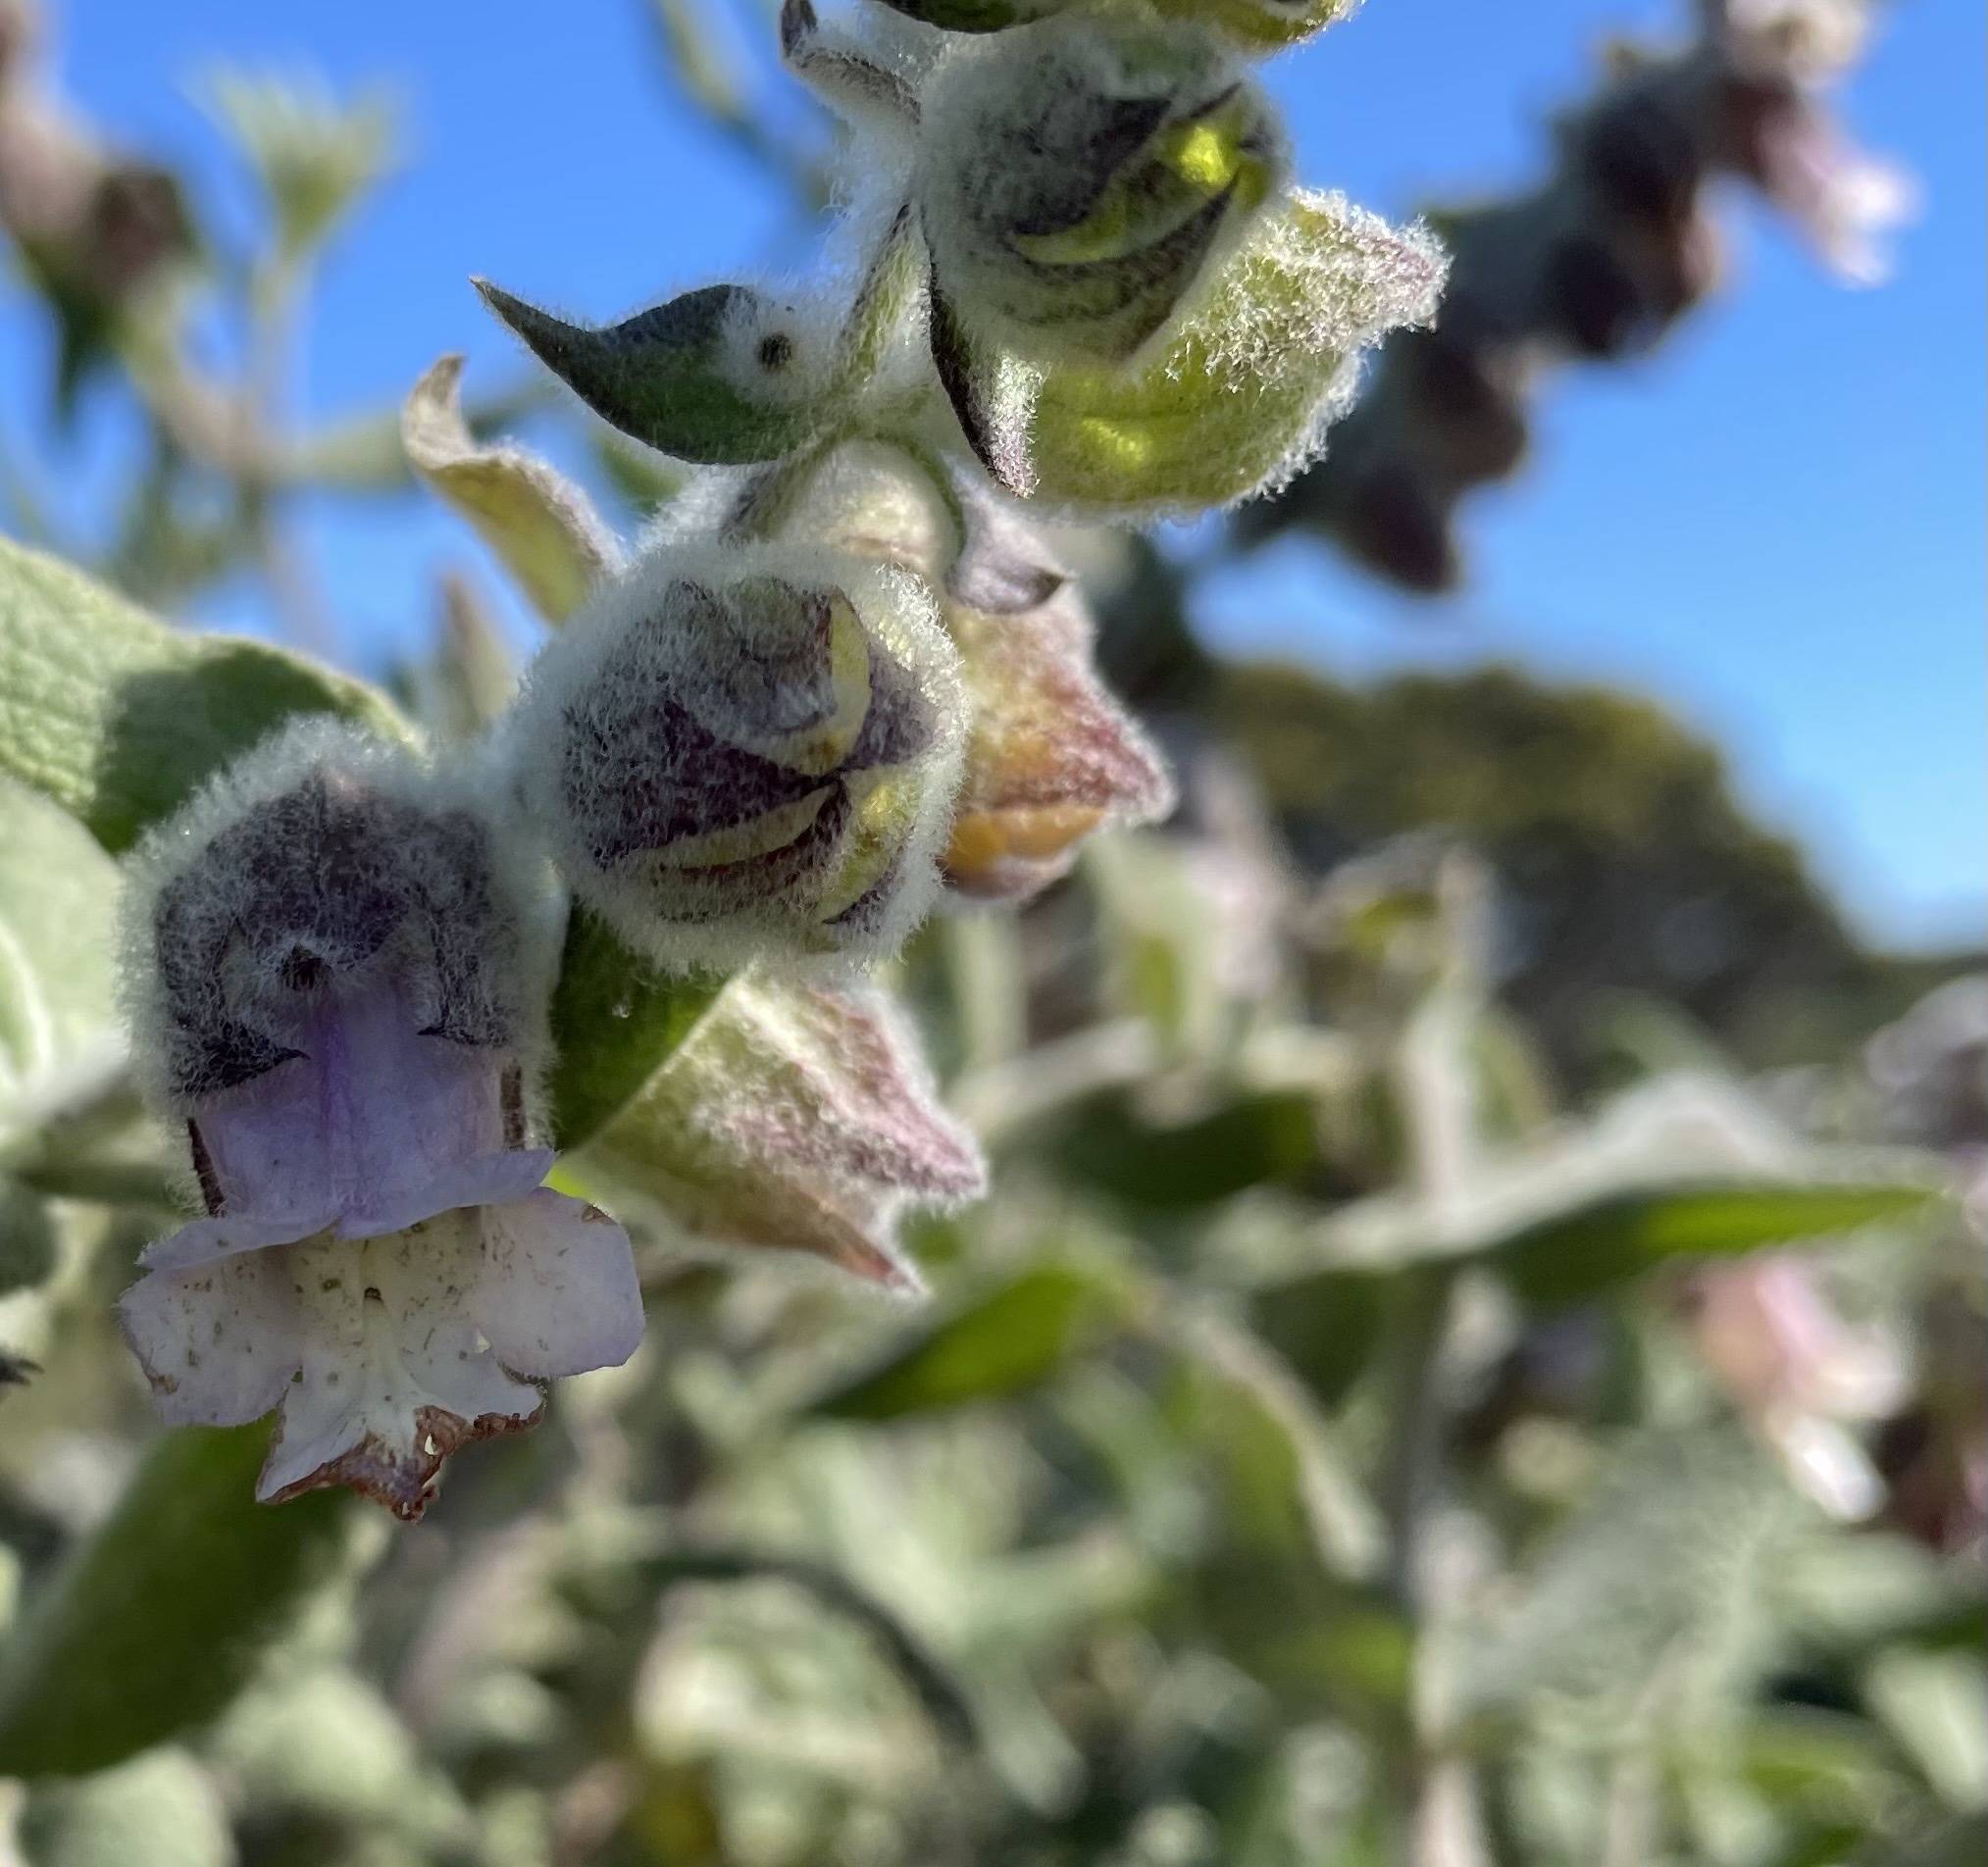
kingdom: Plantae
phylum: Tracheophyta
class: Magnoliopsida
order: Lamiales
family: Lamiaceae
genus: Lepechinia
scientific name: Lepechinia calycina
